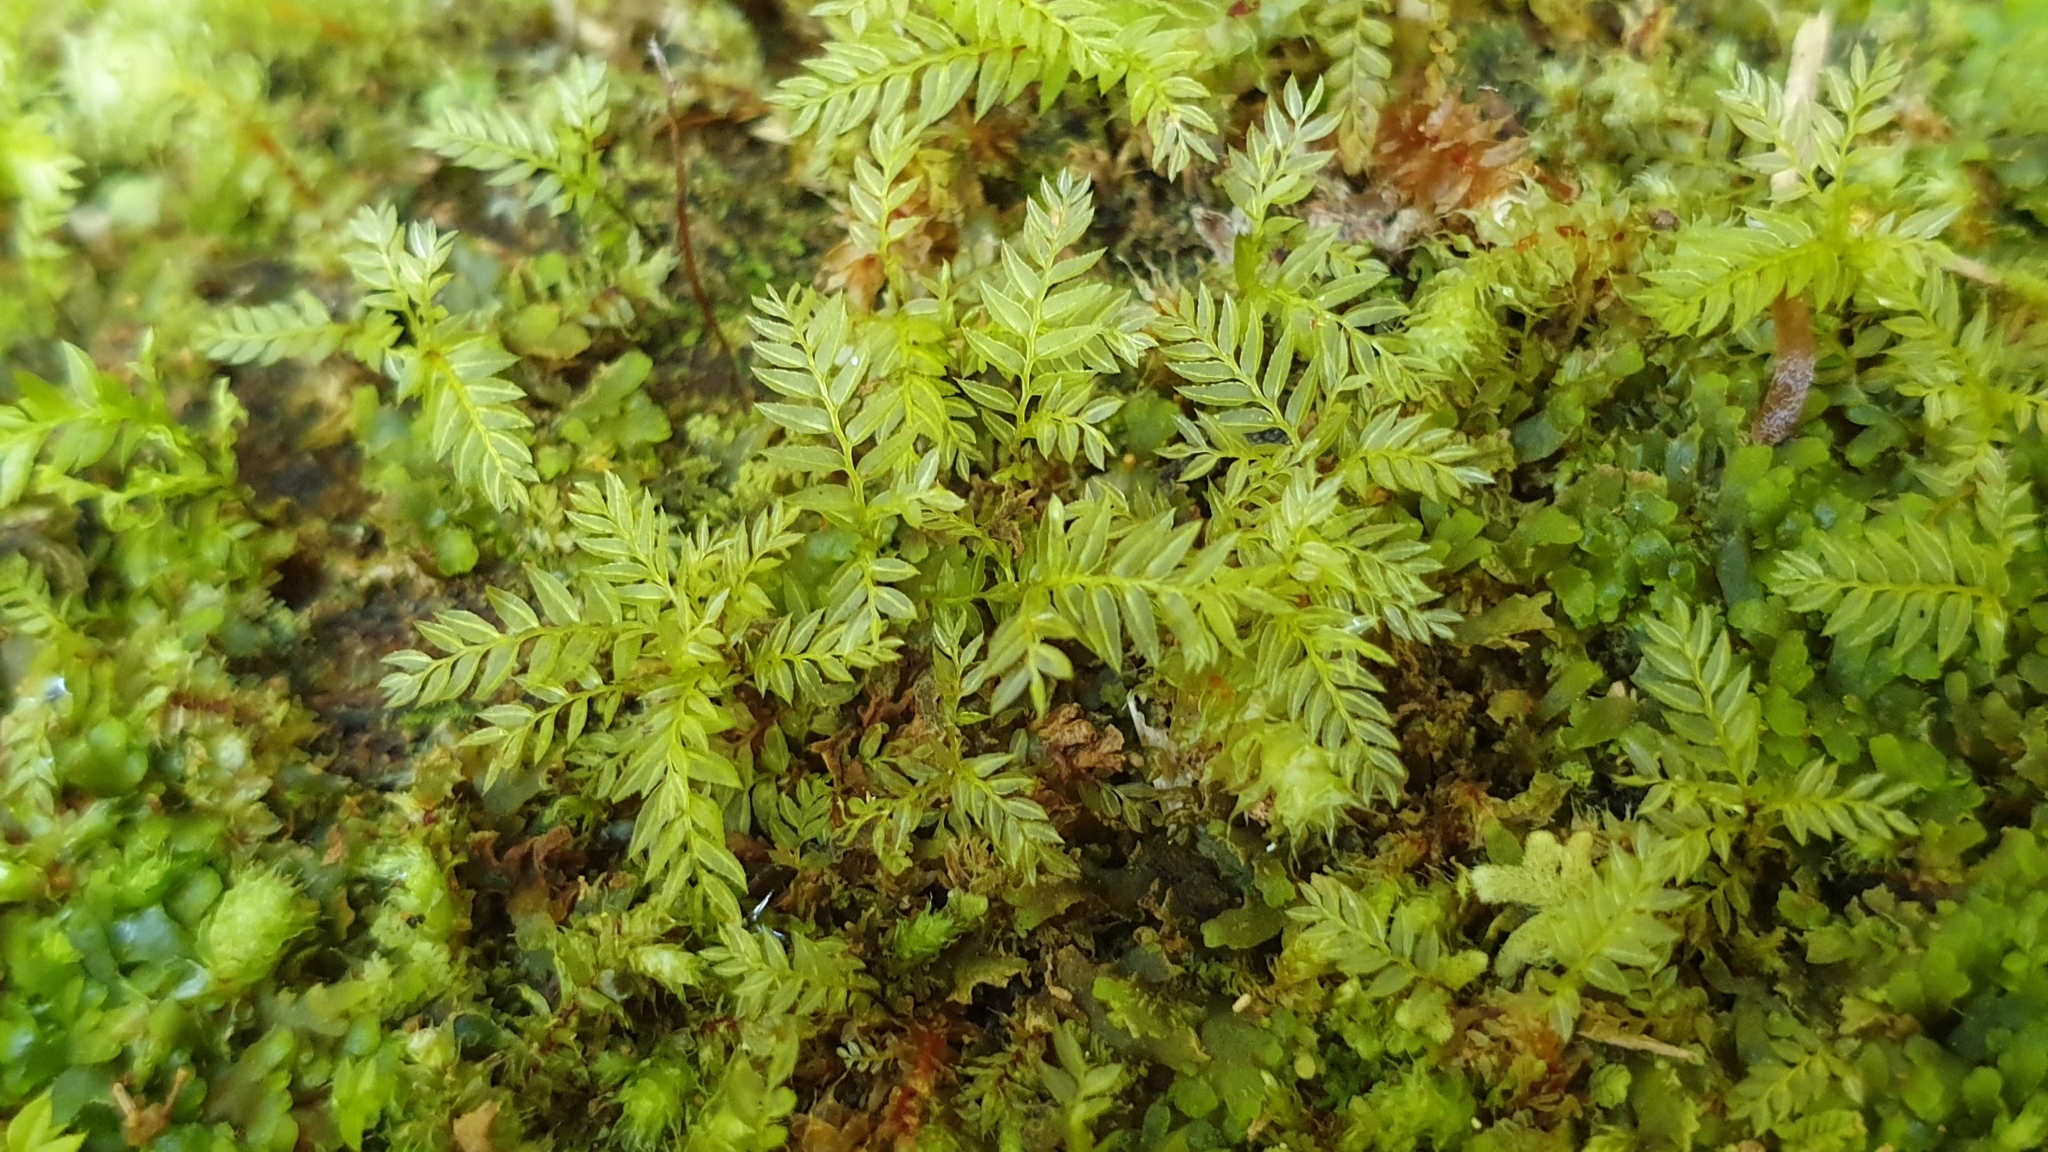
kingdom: Plantae
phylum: Bryophyta
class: Bryopsida
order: Aulacomniales
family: Aulacomniaceae
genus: Hymenodontopsis
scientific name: Hymenodontopsis bifaria
